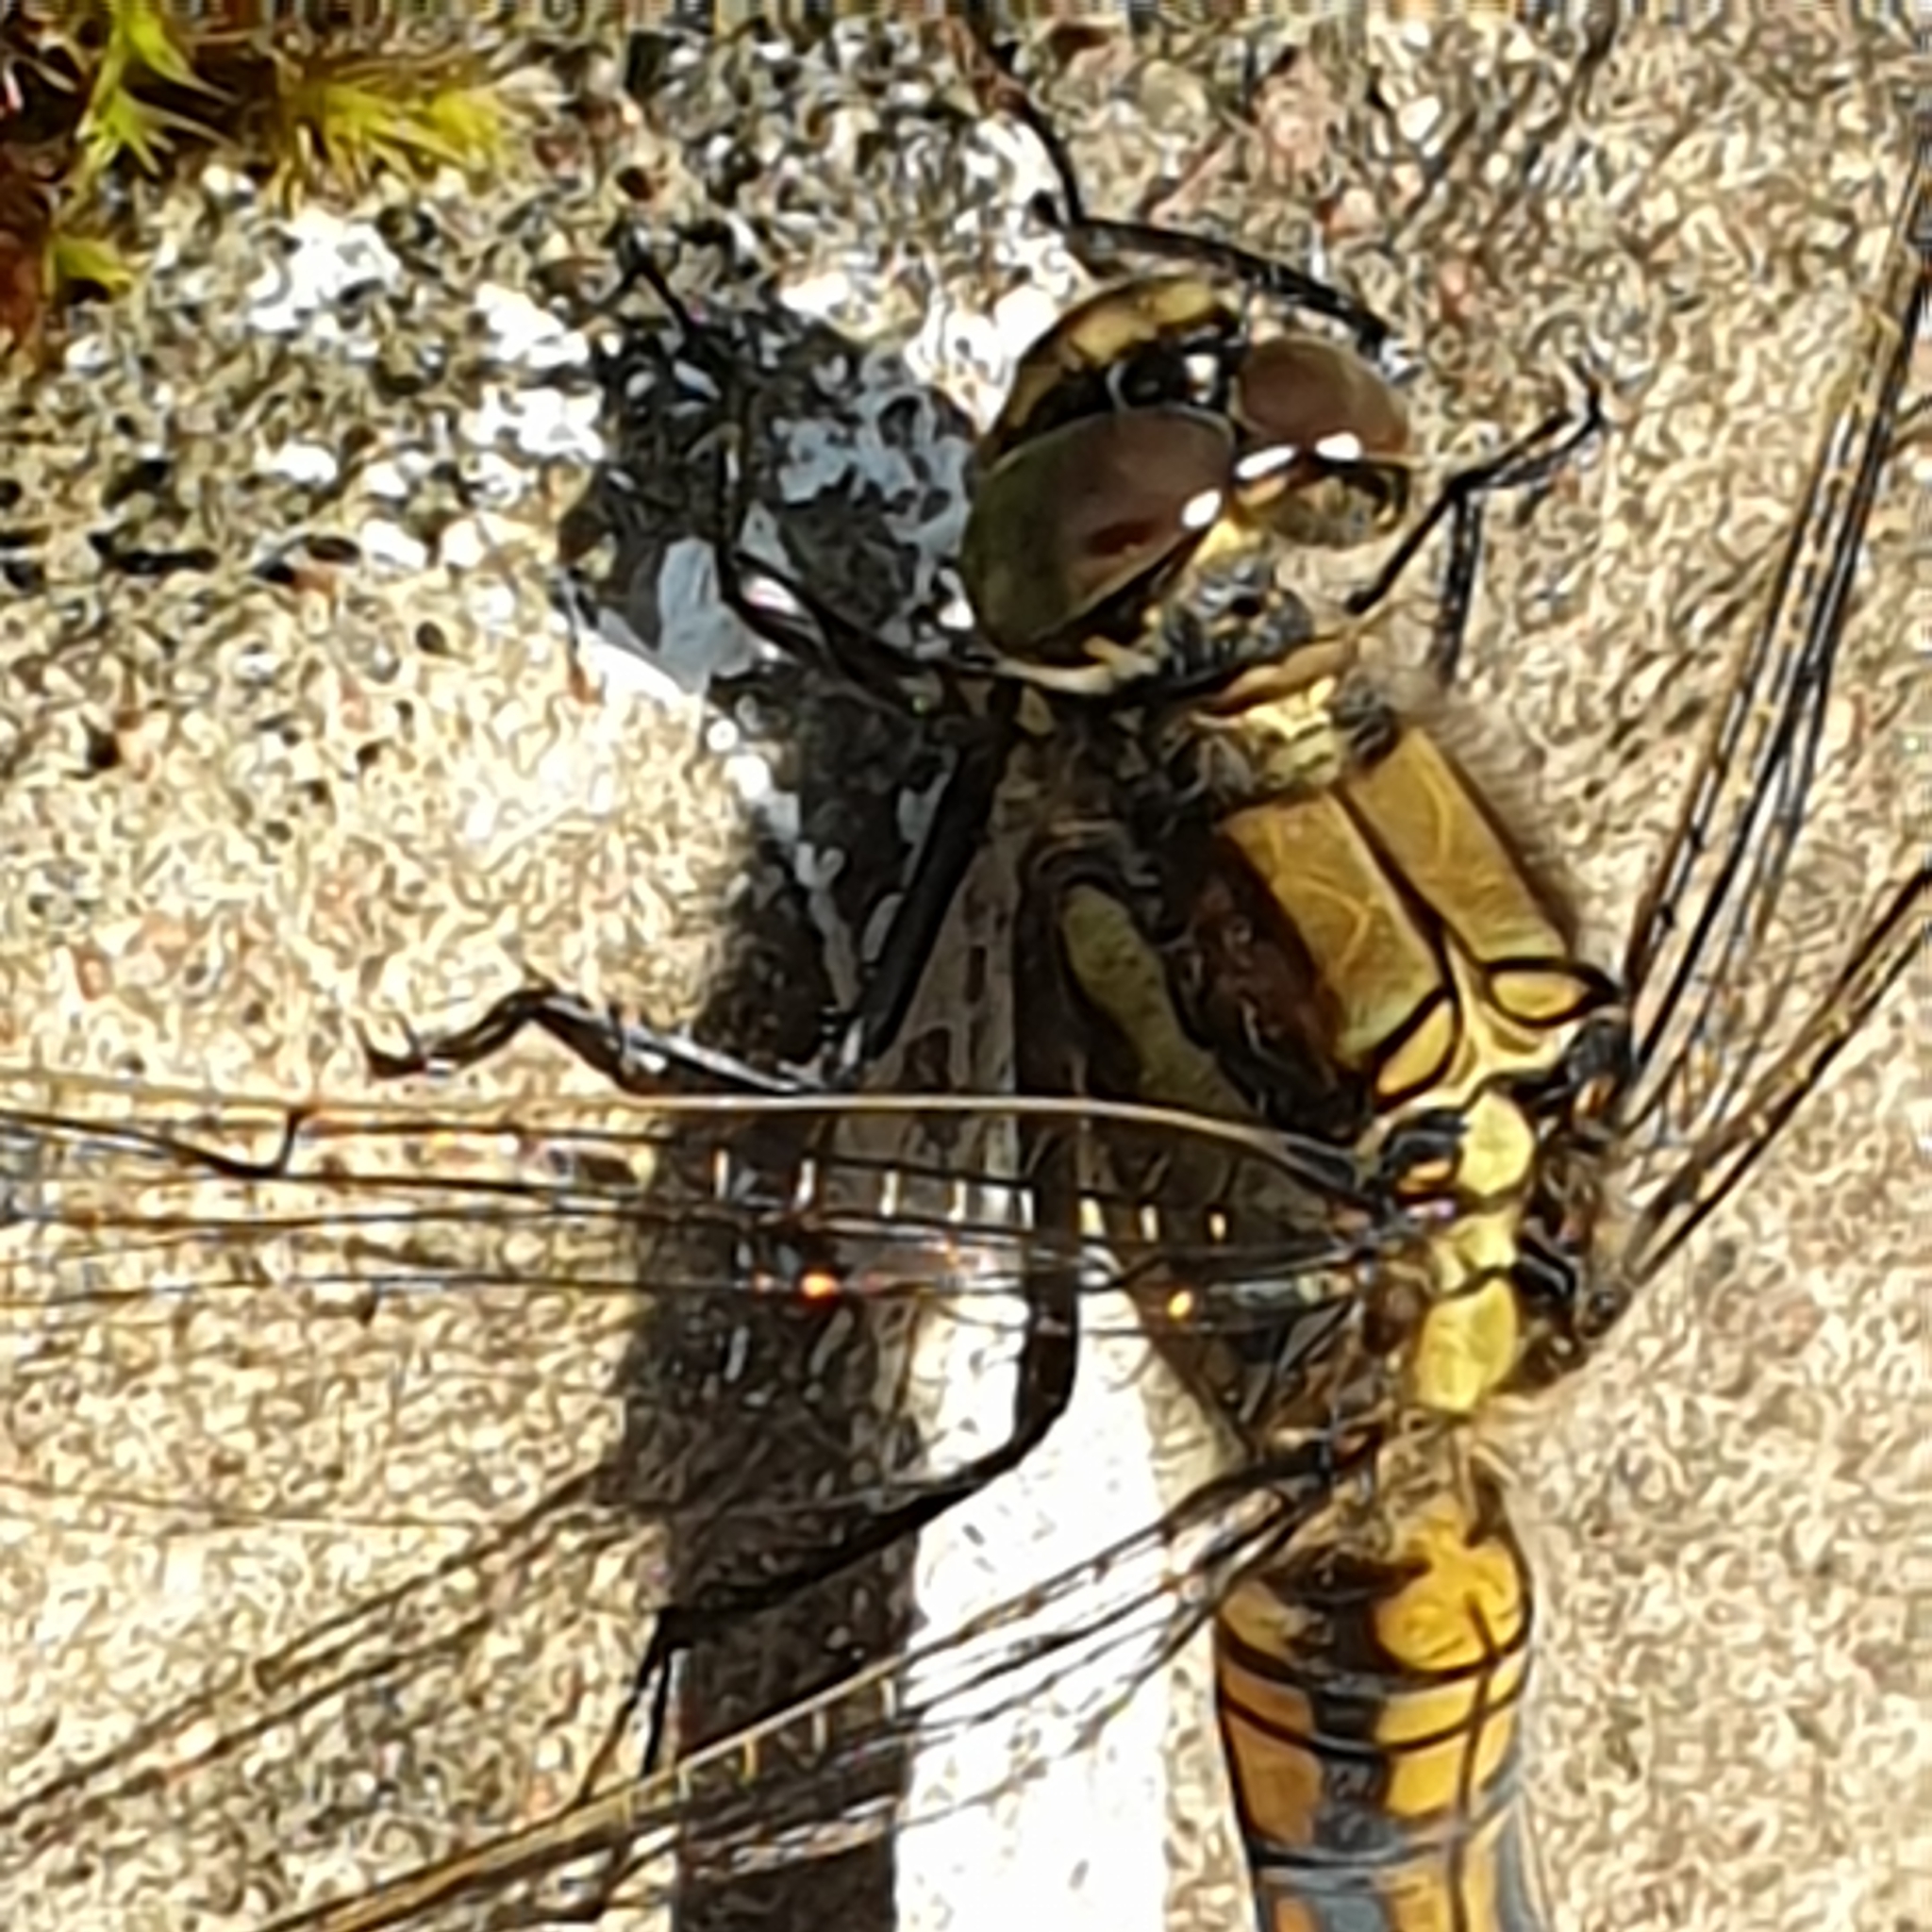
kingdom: Animalia
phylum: Arthropoda
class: Insecta
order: Odonata
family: Libellulidae
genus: Orthetrum
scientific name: Orthetrum cancellatum
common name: Black-tailed skimmer
